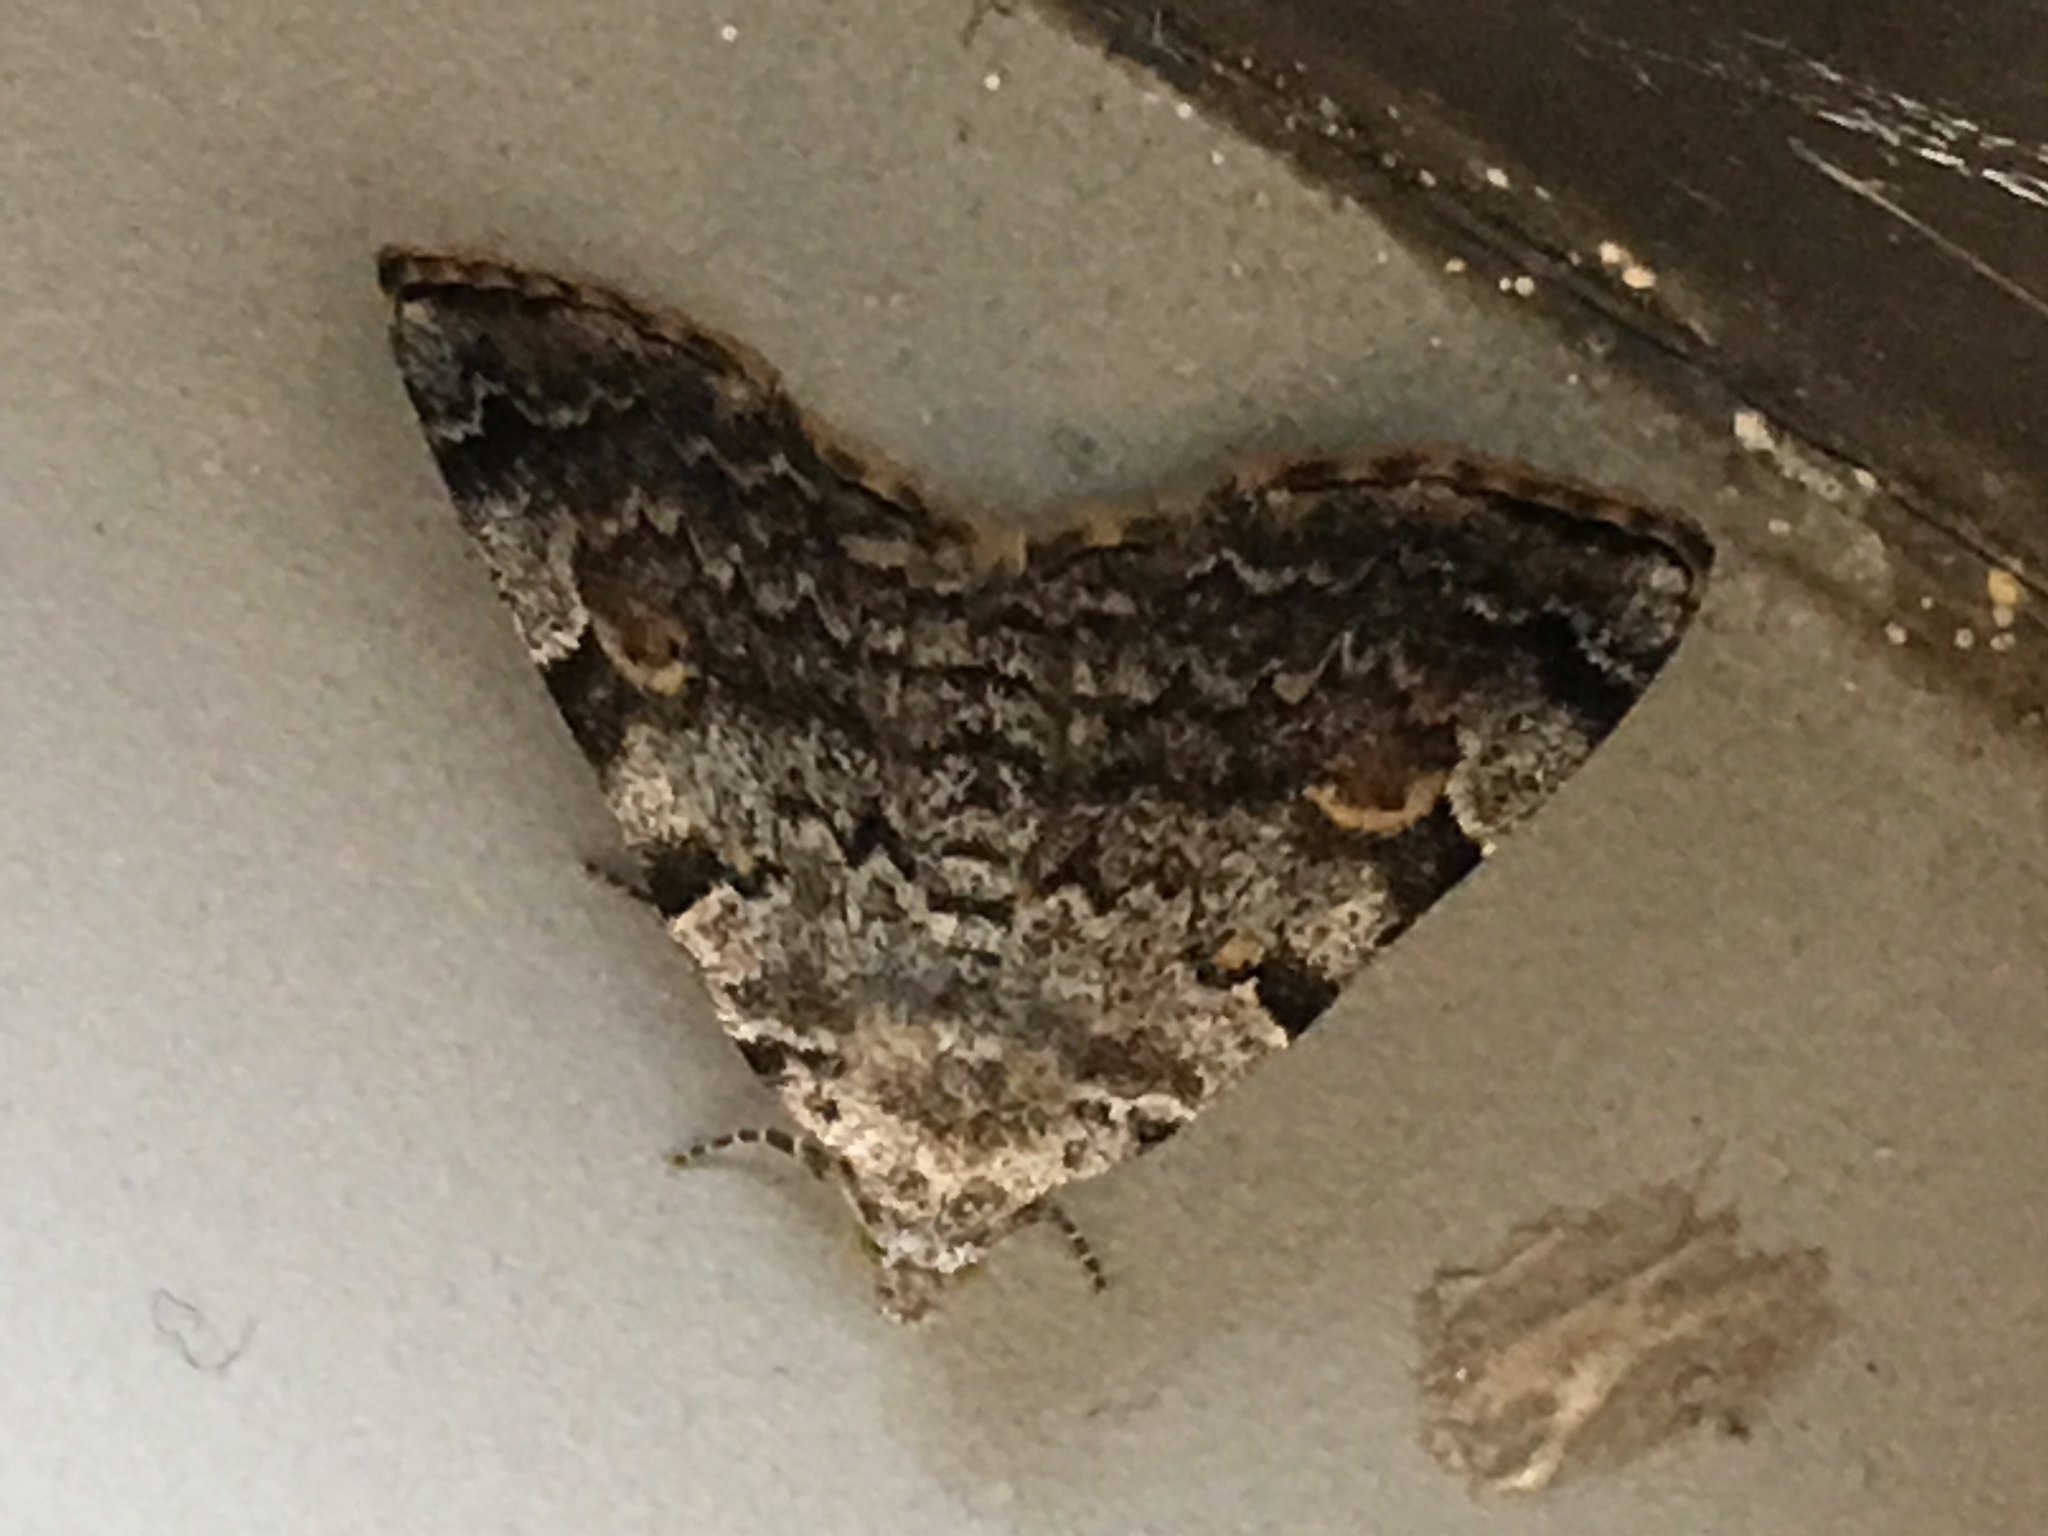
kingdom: Animalia
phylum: Arthropoda
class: Insecta
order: Lepidoptera
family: Erebidae
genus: Idia
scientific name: Idia americalis
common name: American idia moth
